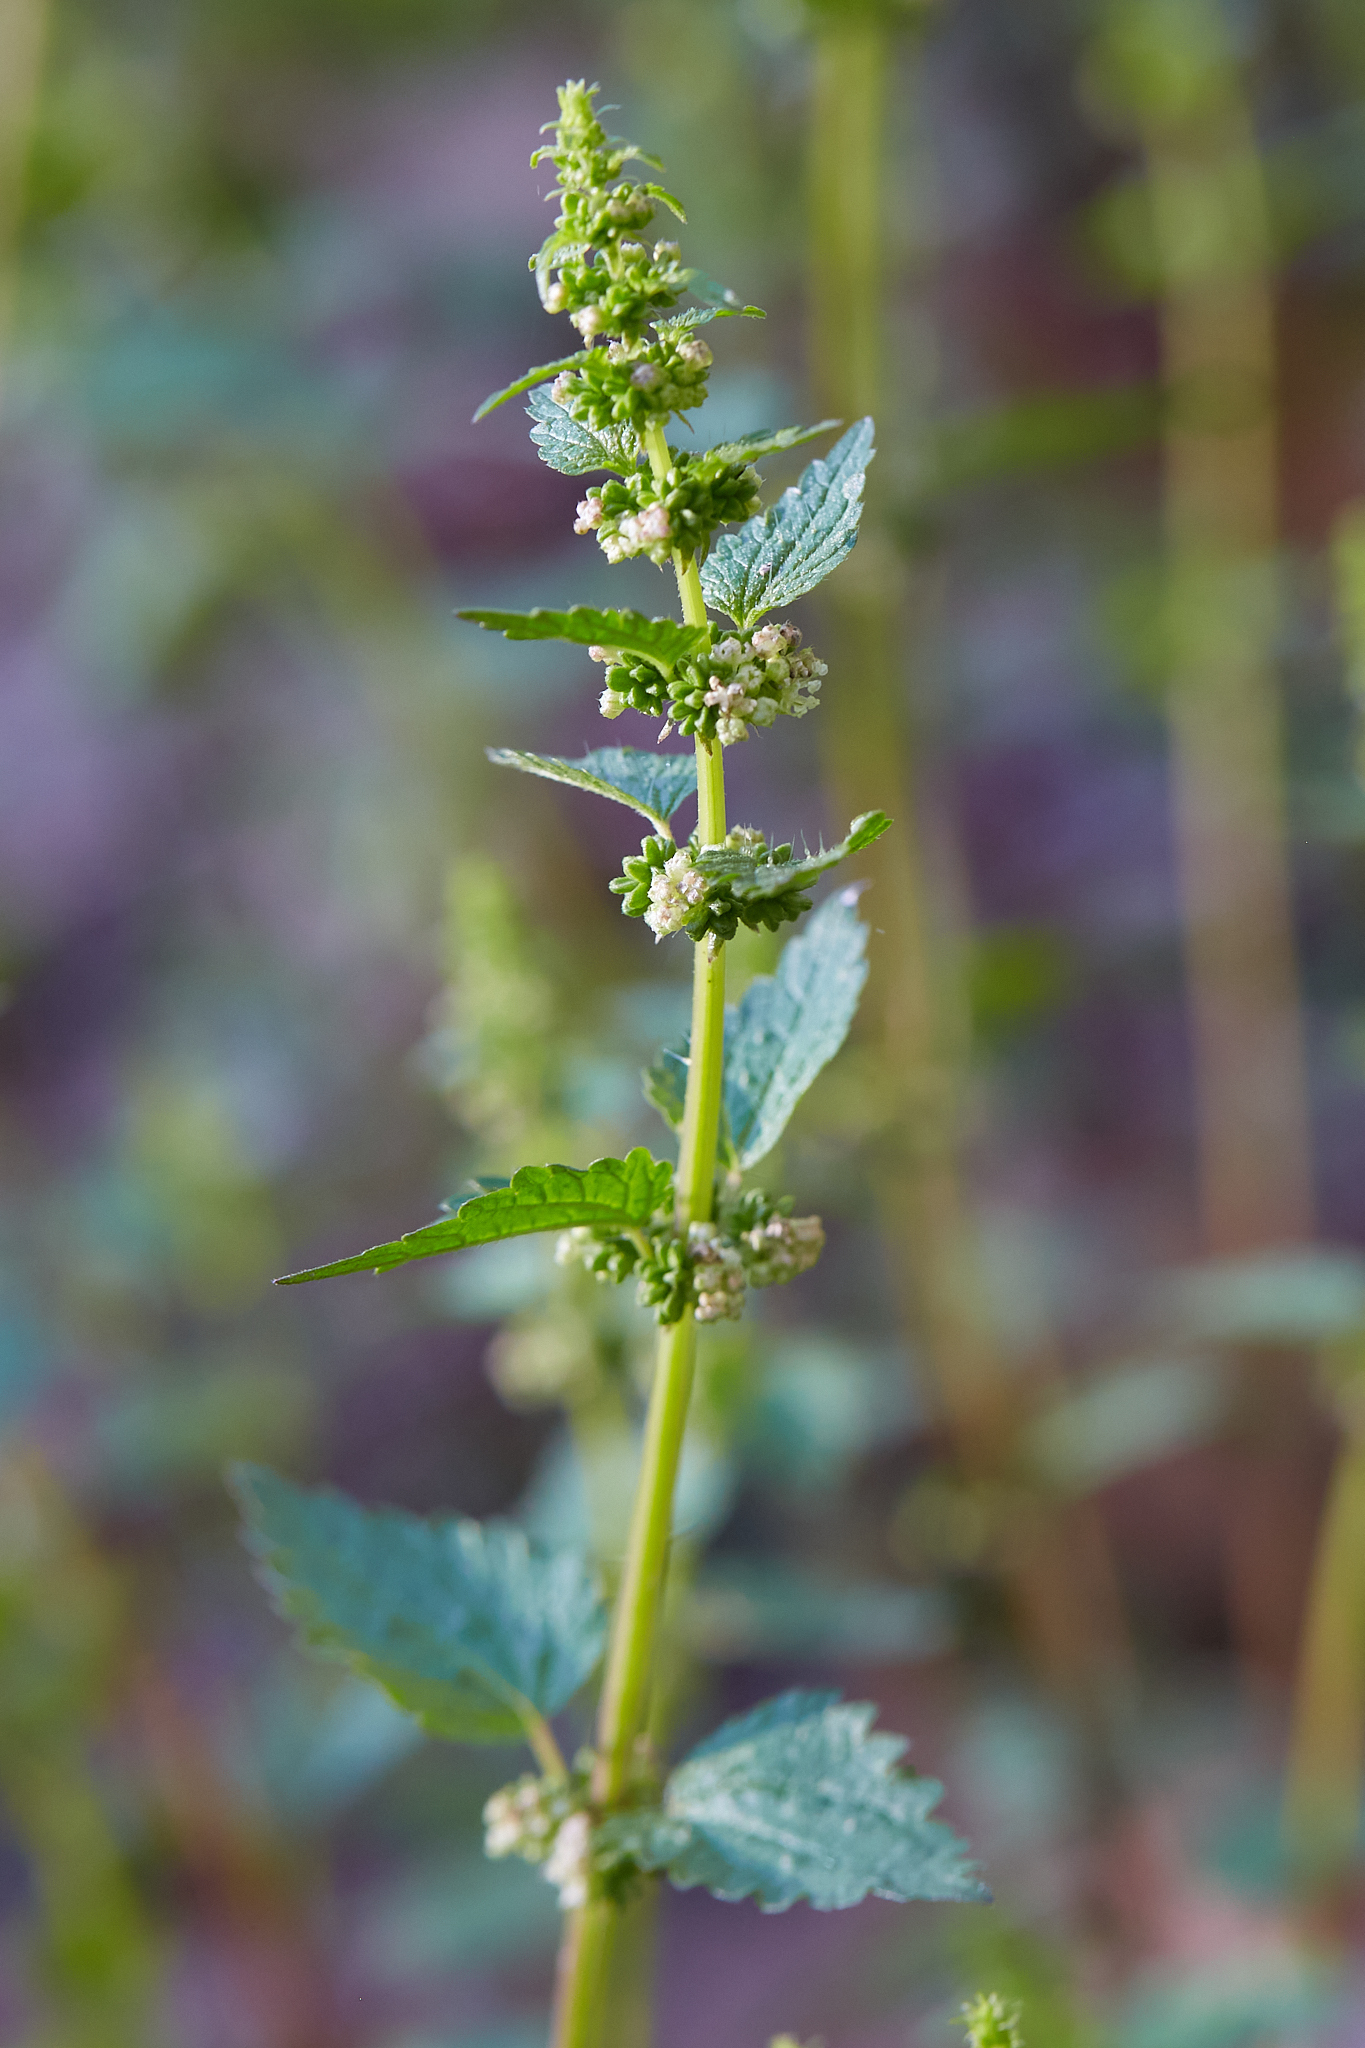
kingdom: Plantae
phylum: Tracheophyta
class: Magnoliopsida
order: Rosales
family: Urticaceae
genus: Urtica
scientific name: Urtica chamaedryoides
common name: Heart-leaf nettle
